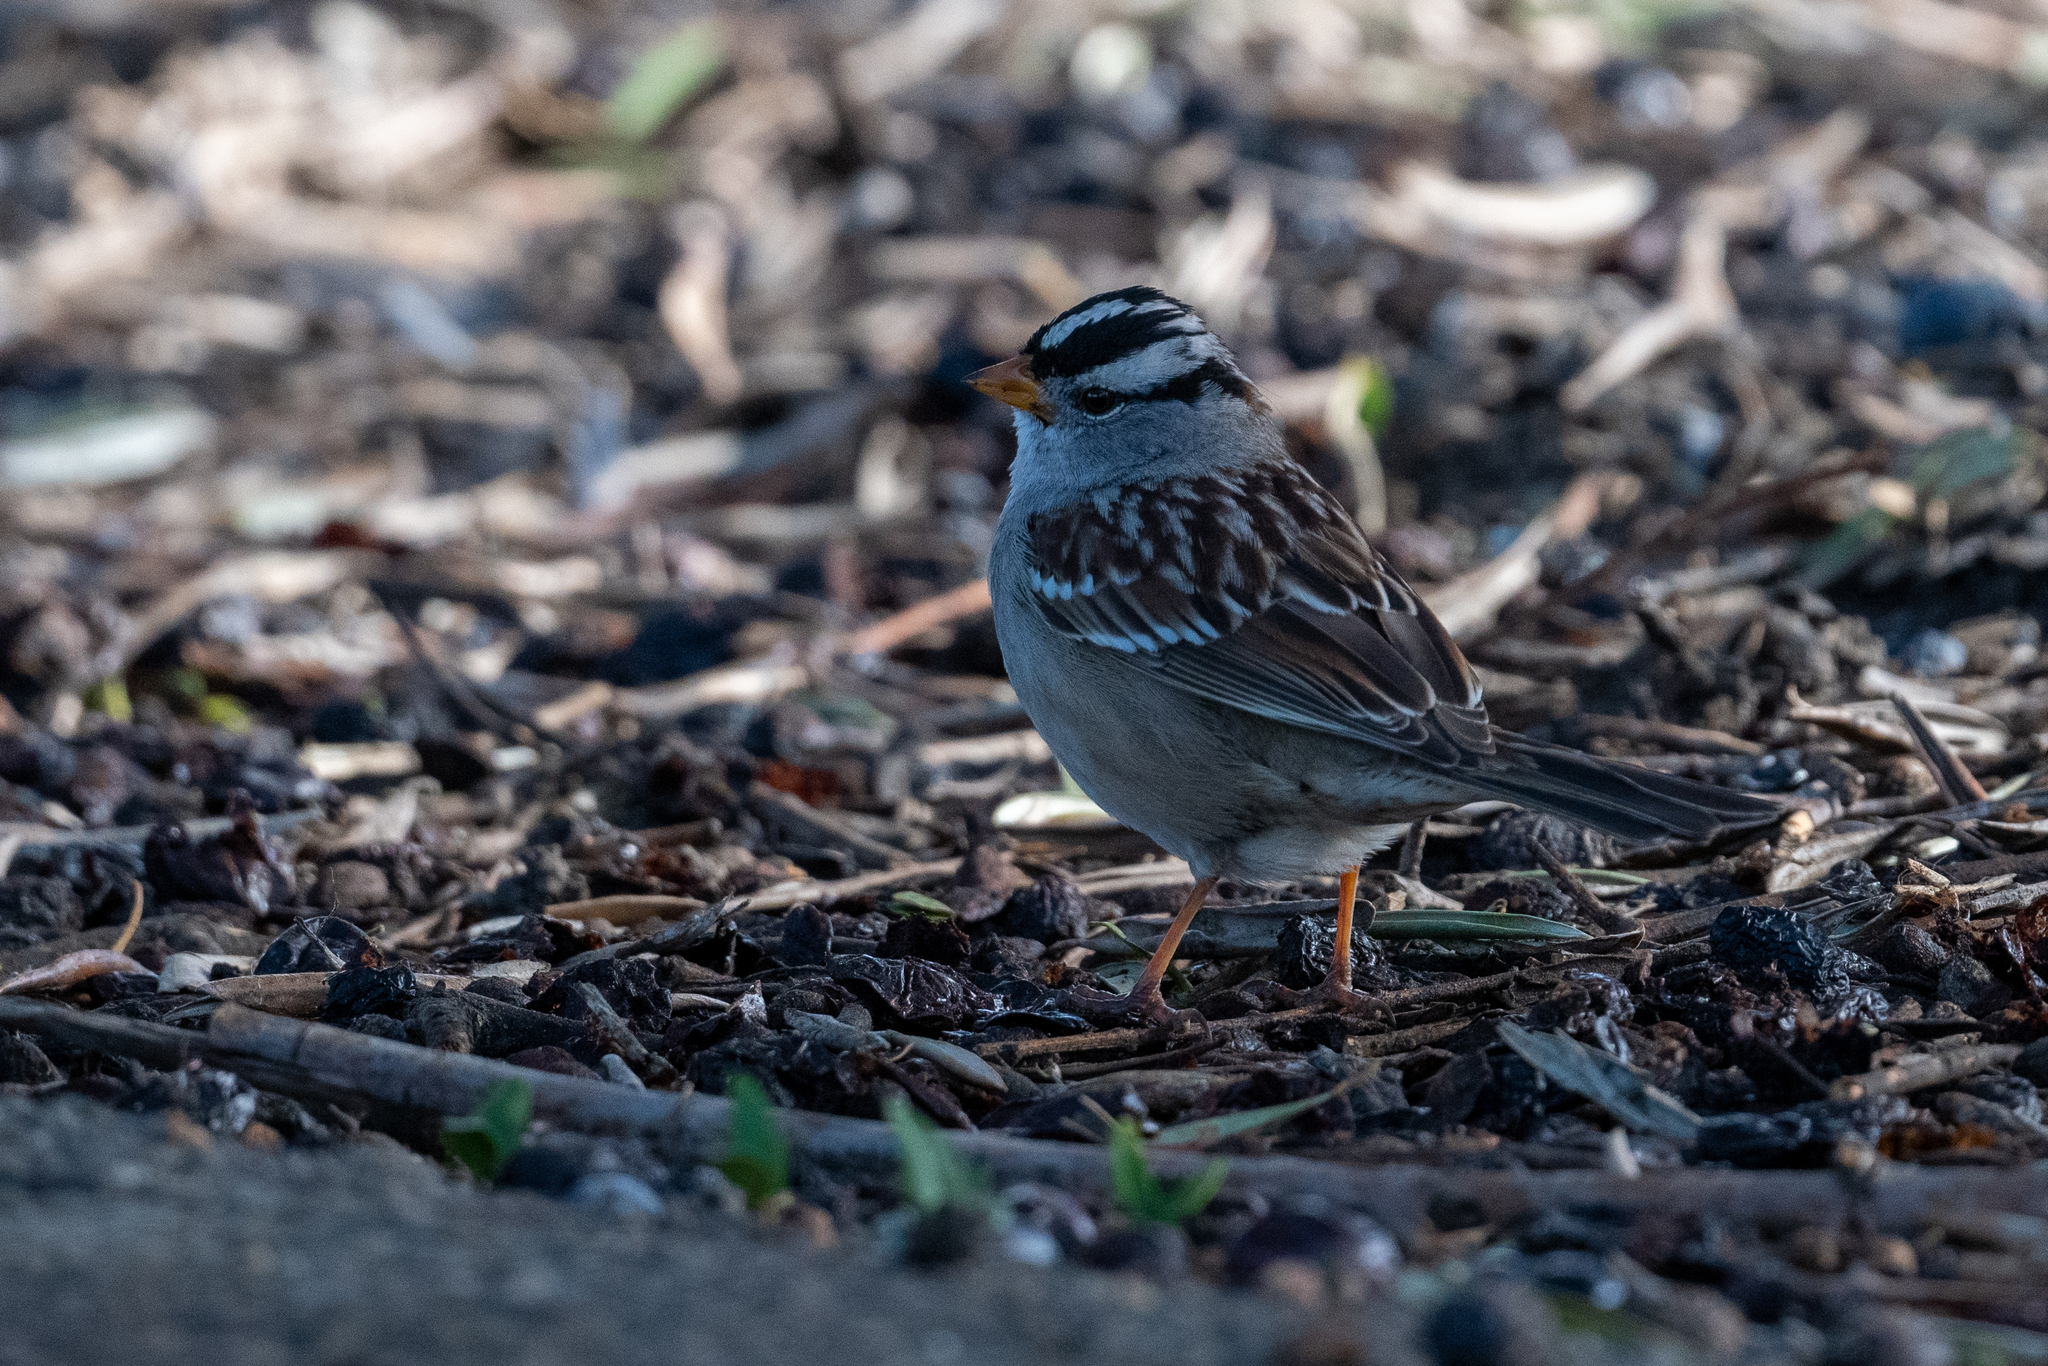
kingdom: Animalia
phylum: Chordata
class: Aves
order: Passeriformes
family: Passerellidae
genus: Zonotrichia
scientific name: Zonotrichia leucophrys
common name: White-crowned sparrow
